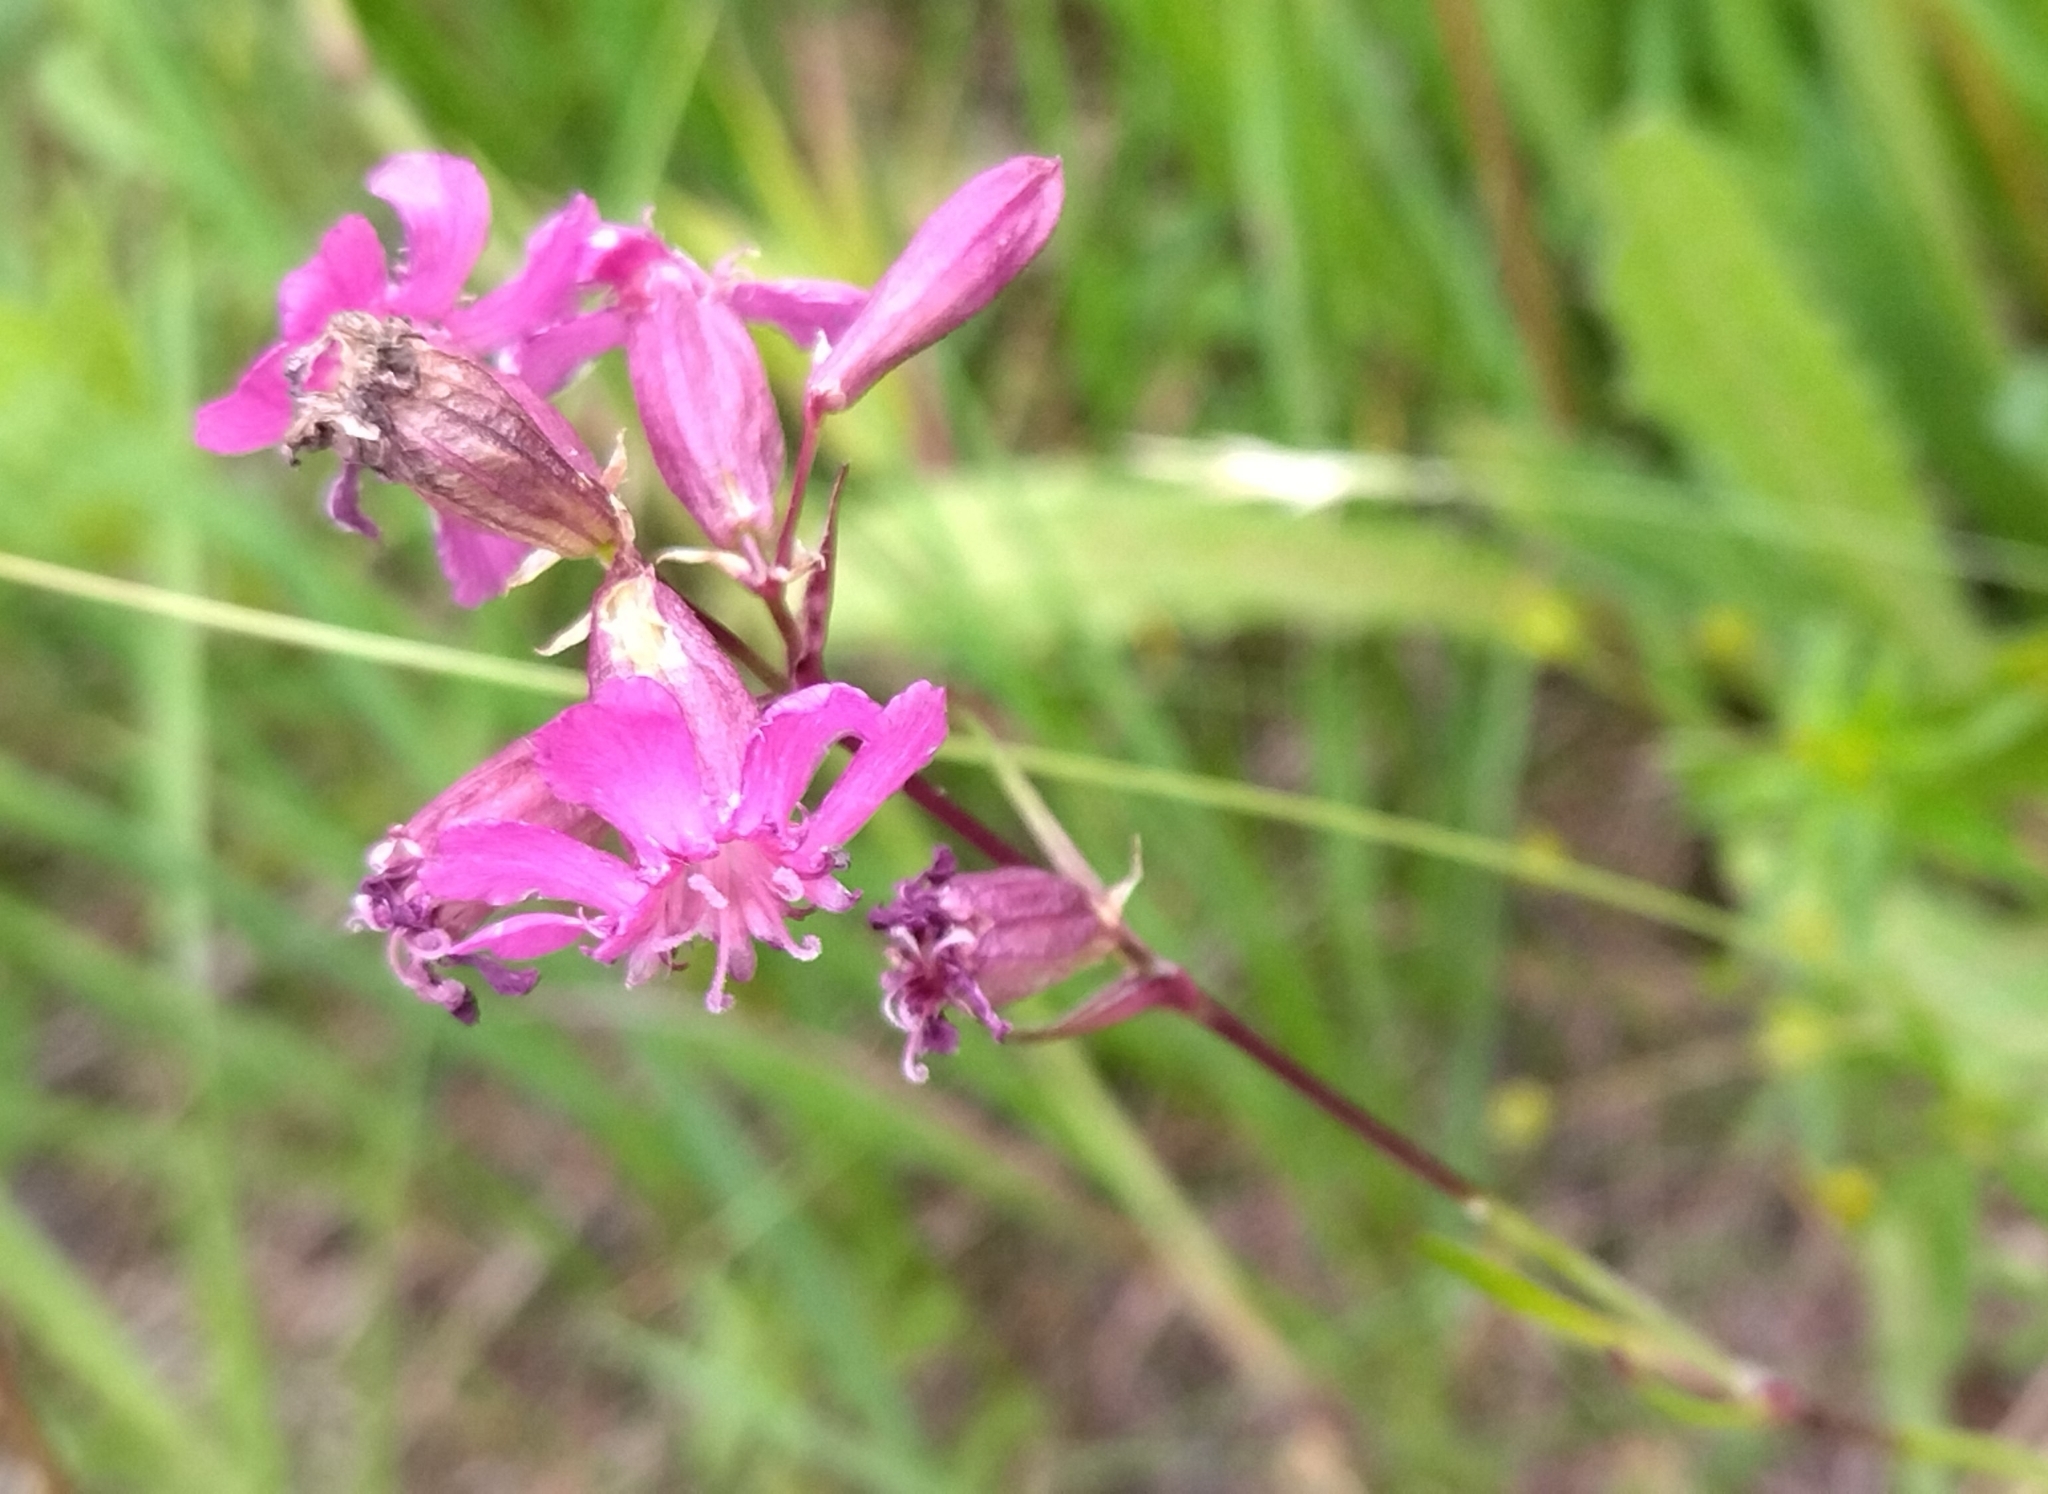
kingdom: Plantae
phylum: Tracheophyta
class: Magnoliopsida
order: Caryophyllales
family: Caryophyllaceae
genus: Viscaria
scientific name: Viscaria vulgaris
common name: Clammy campion
